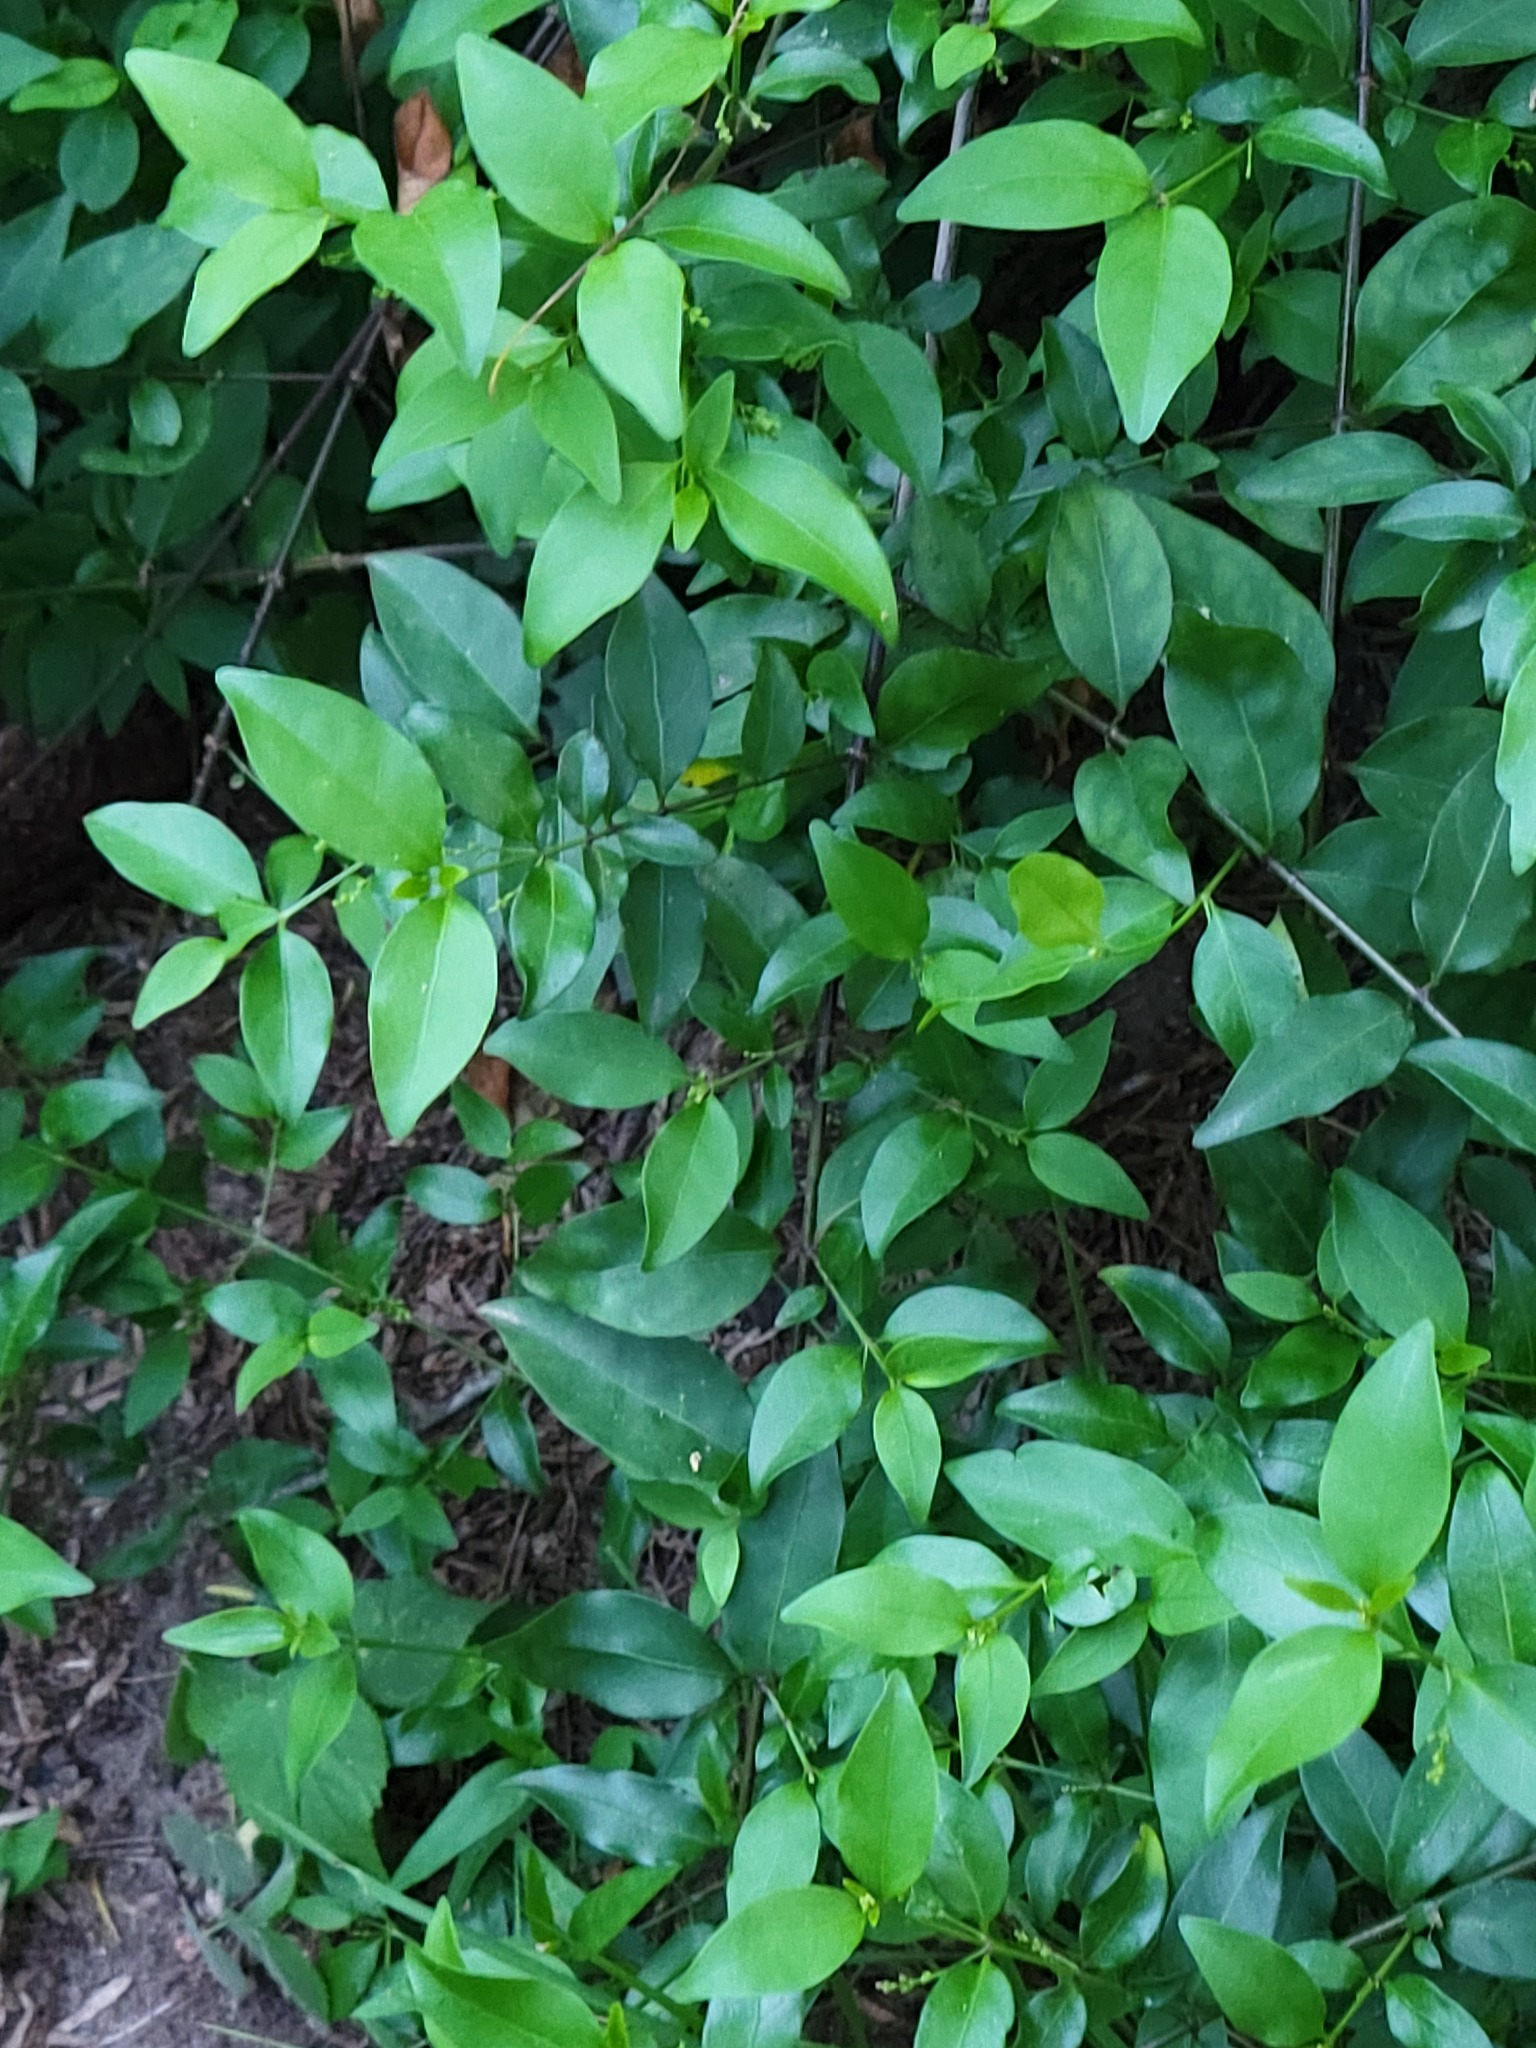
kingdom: Plantae
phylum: Tracheophyta
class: Magnoliopsida
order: Gentianales
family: Rubiaceae
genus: Chiococca
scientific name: Chiococca alba
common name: Snowberry
